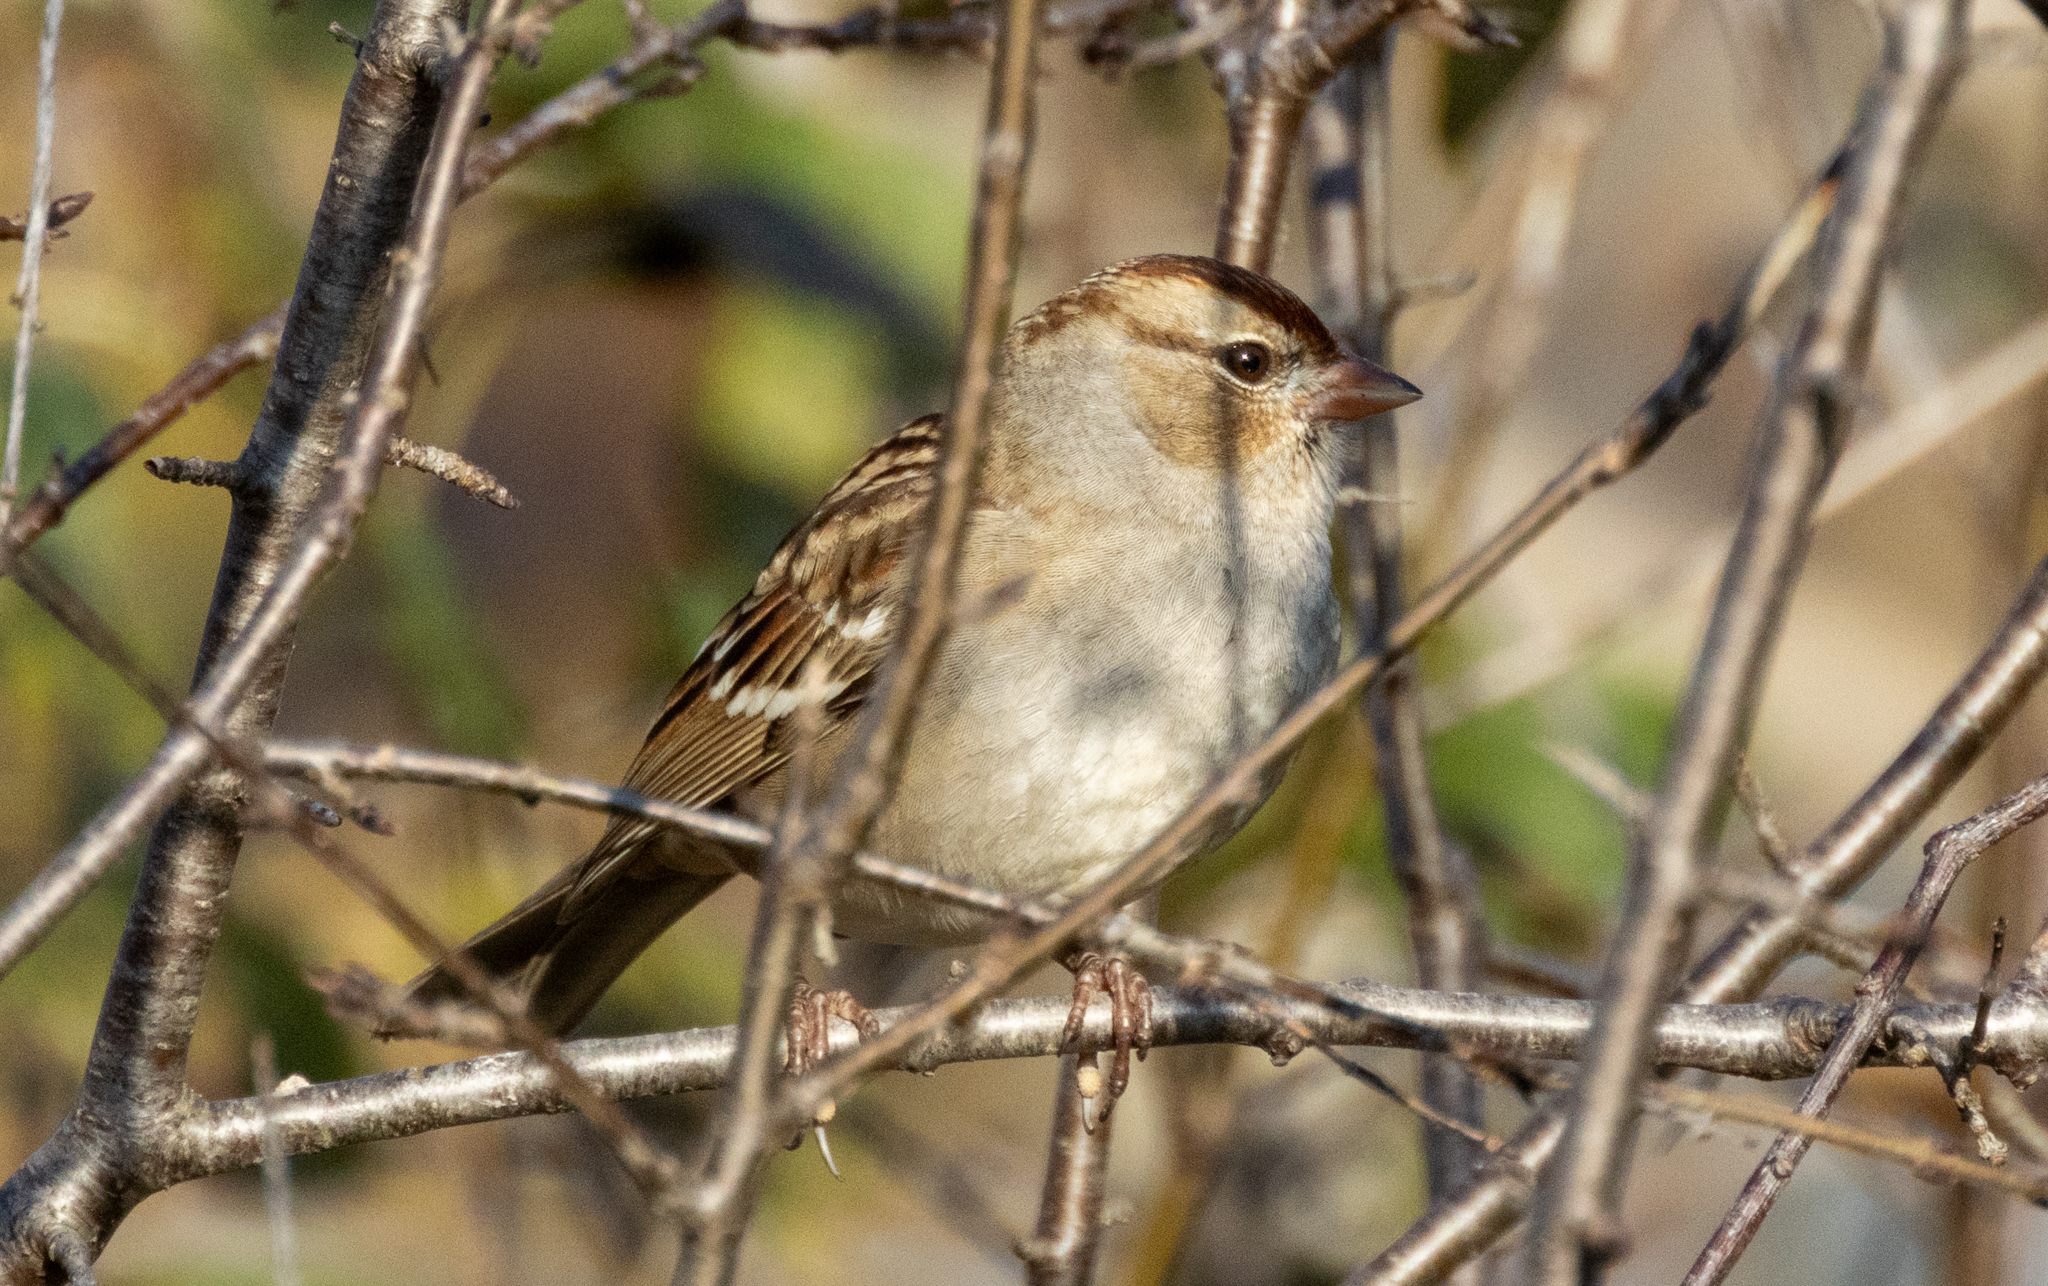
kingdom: Animalia
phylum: Chordata
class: Aves
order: Passeriformes
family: Passerellidae
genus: Zonotrichia
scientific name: Zonotrichia leucophrys
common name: White-crowned sparrow
